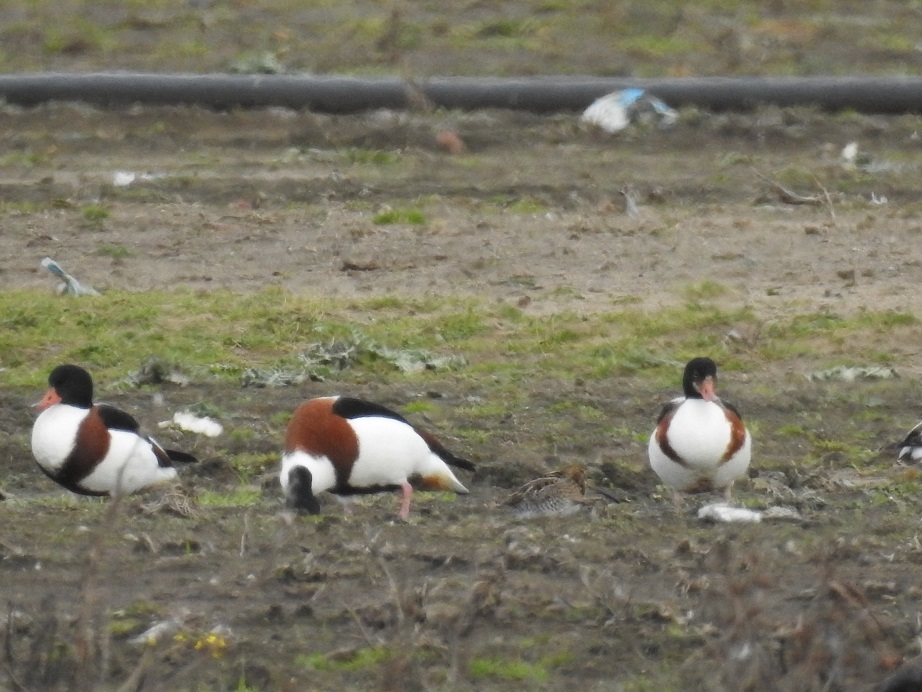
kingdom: Animalia
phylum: Chordata
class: Aves
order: Anseriformes
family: Anatidae
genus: Tadorna
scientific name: Tadorna tadorna
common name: Common shelduck
